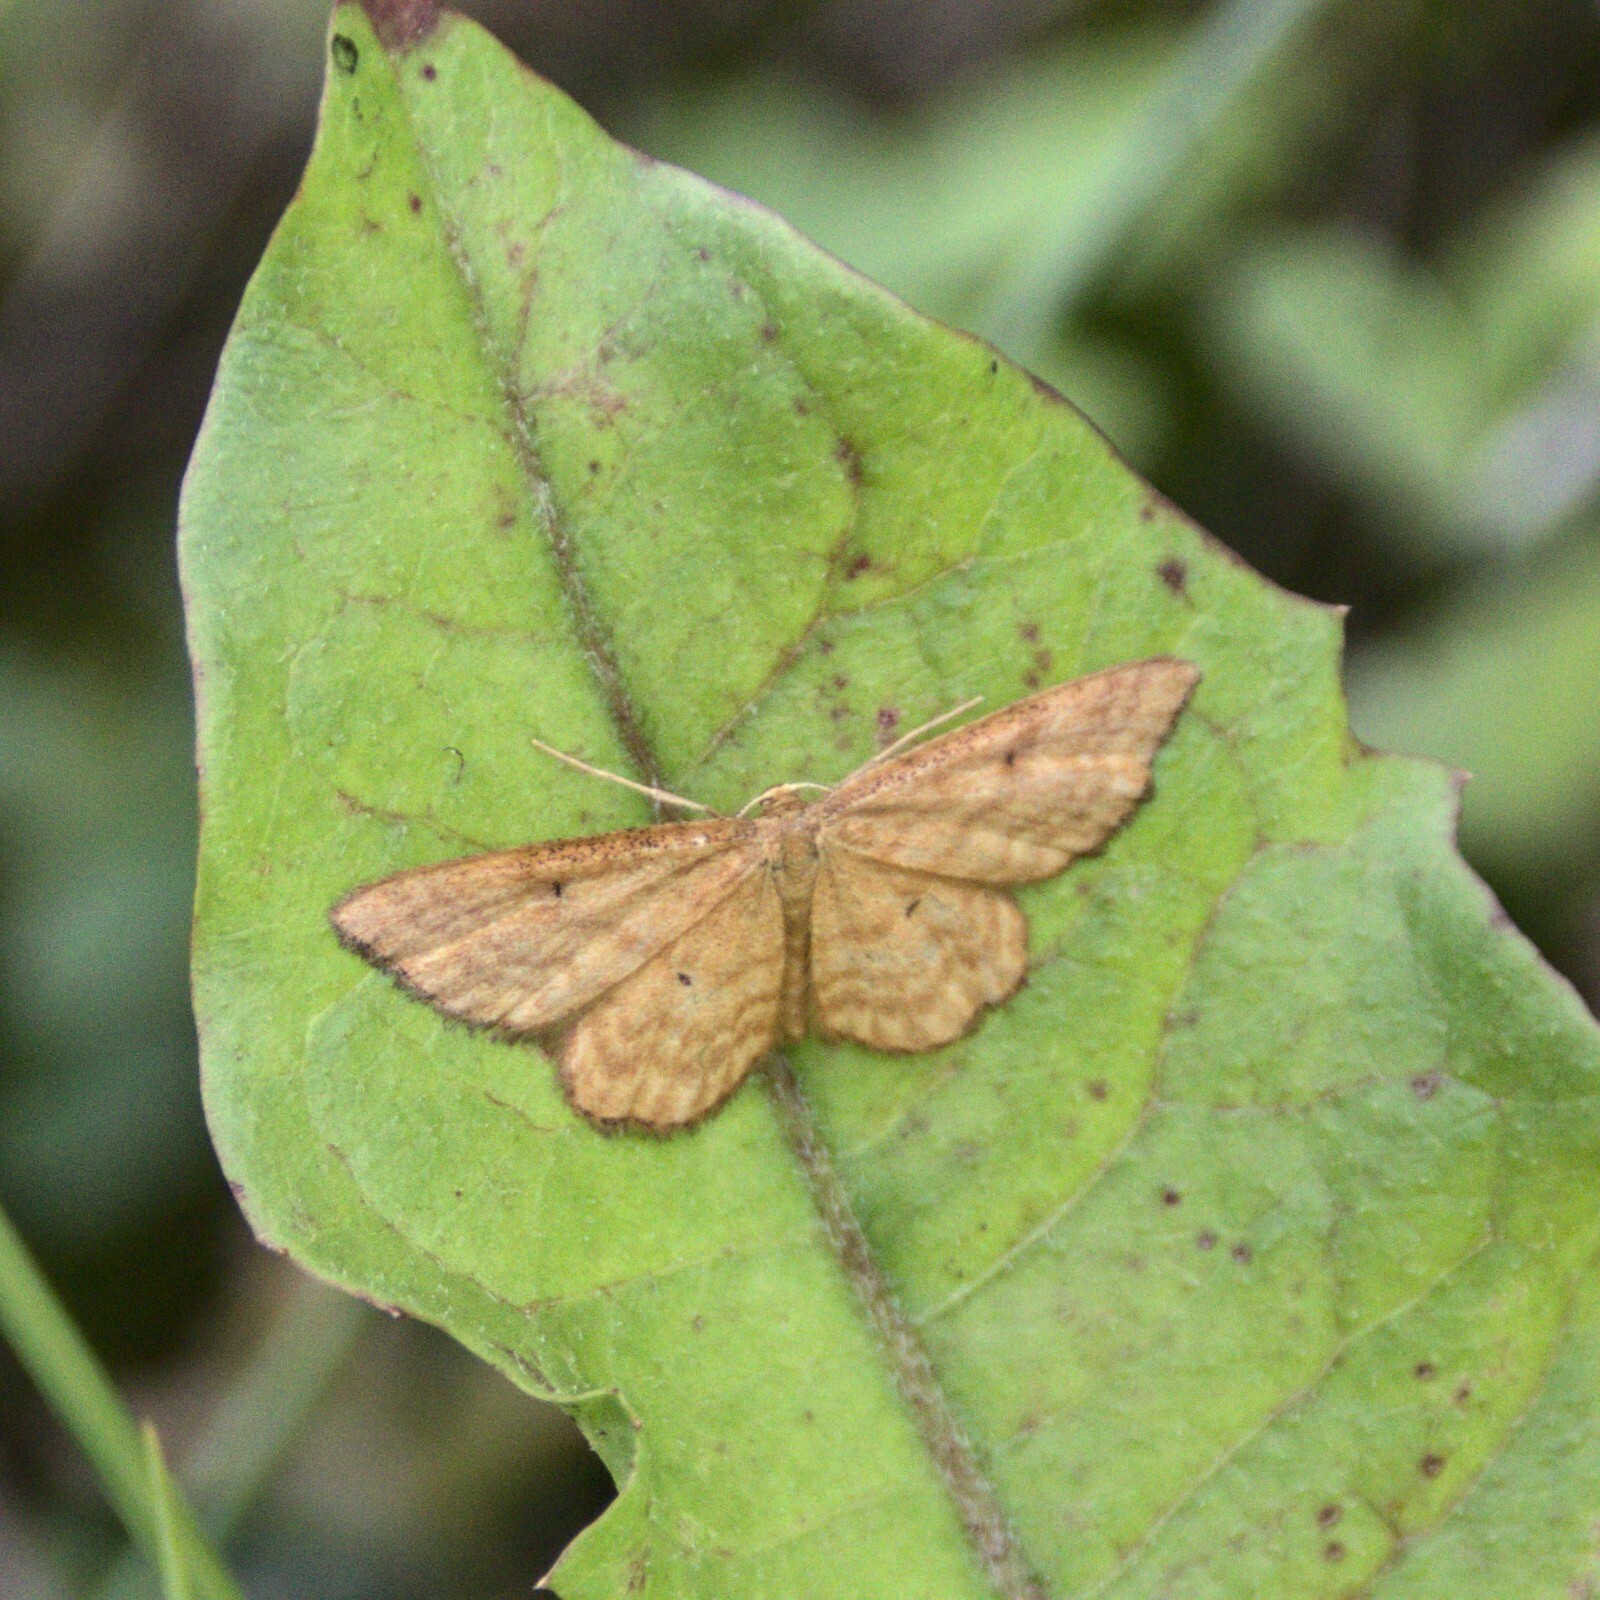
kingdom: Animalia
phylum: Arthropoda
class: Insecta
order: Lepidoptera
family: Geometridae
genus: Idaea
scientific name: Idaea serpentata
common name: Ochraceous wave
